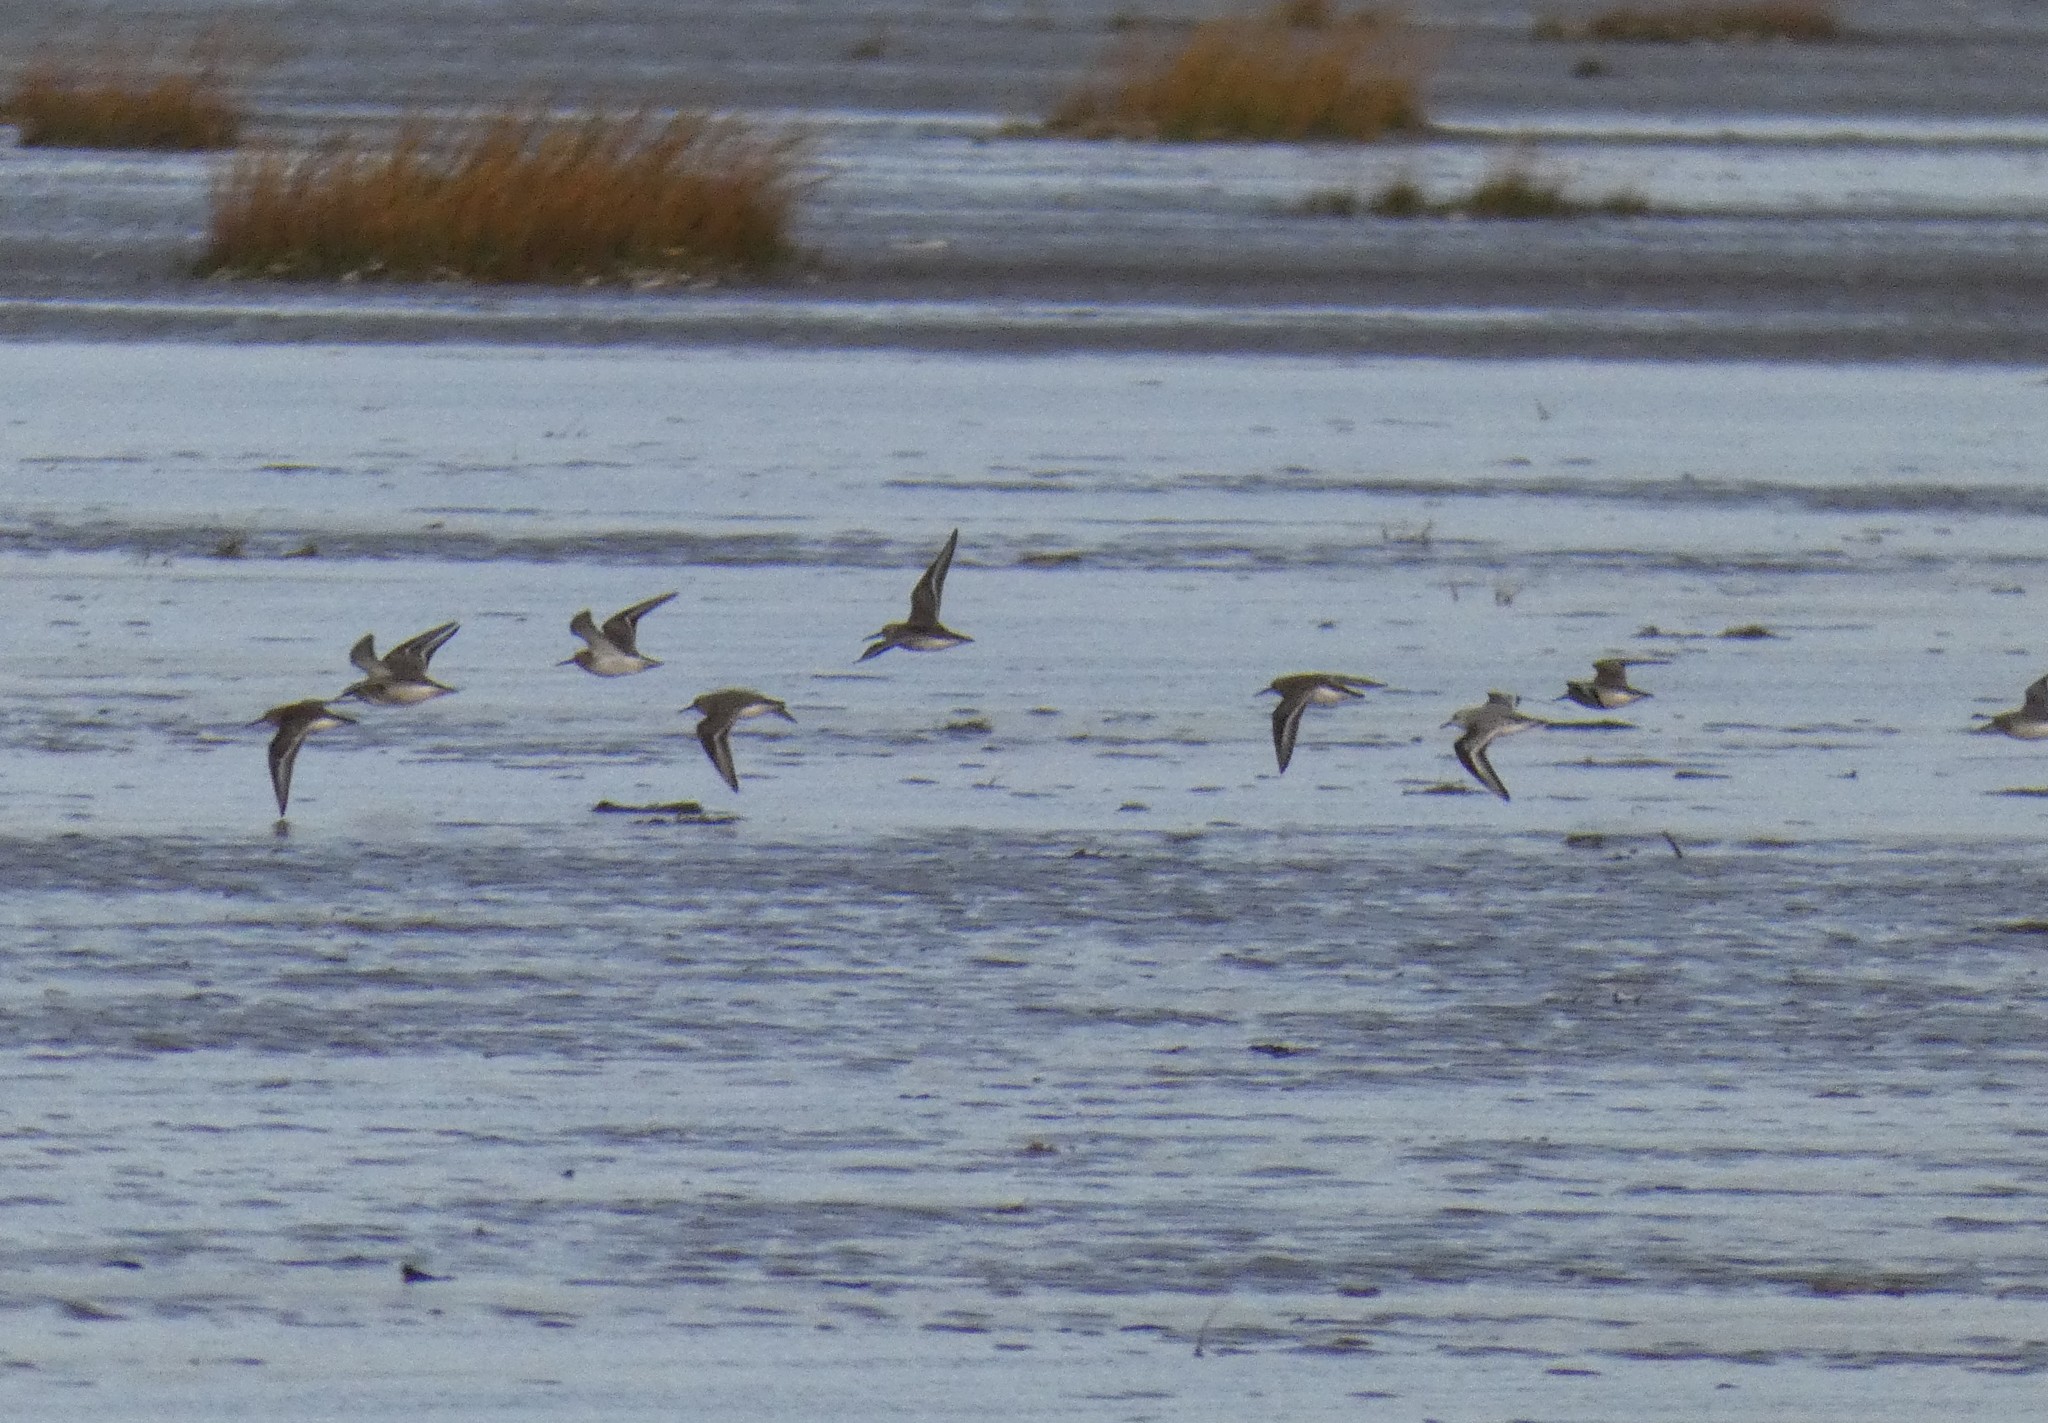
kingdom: Animalia
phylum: Chordata
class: Aves
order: Charadriiformes
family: Scolopacidae
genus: Calidris
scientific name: Calidris alpina
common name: Dunlin
